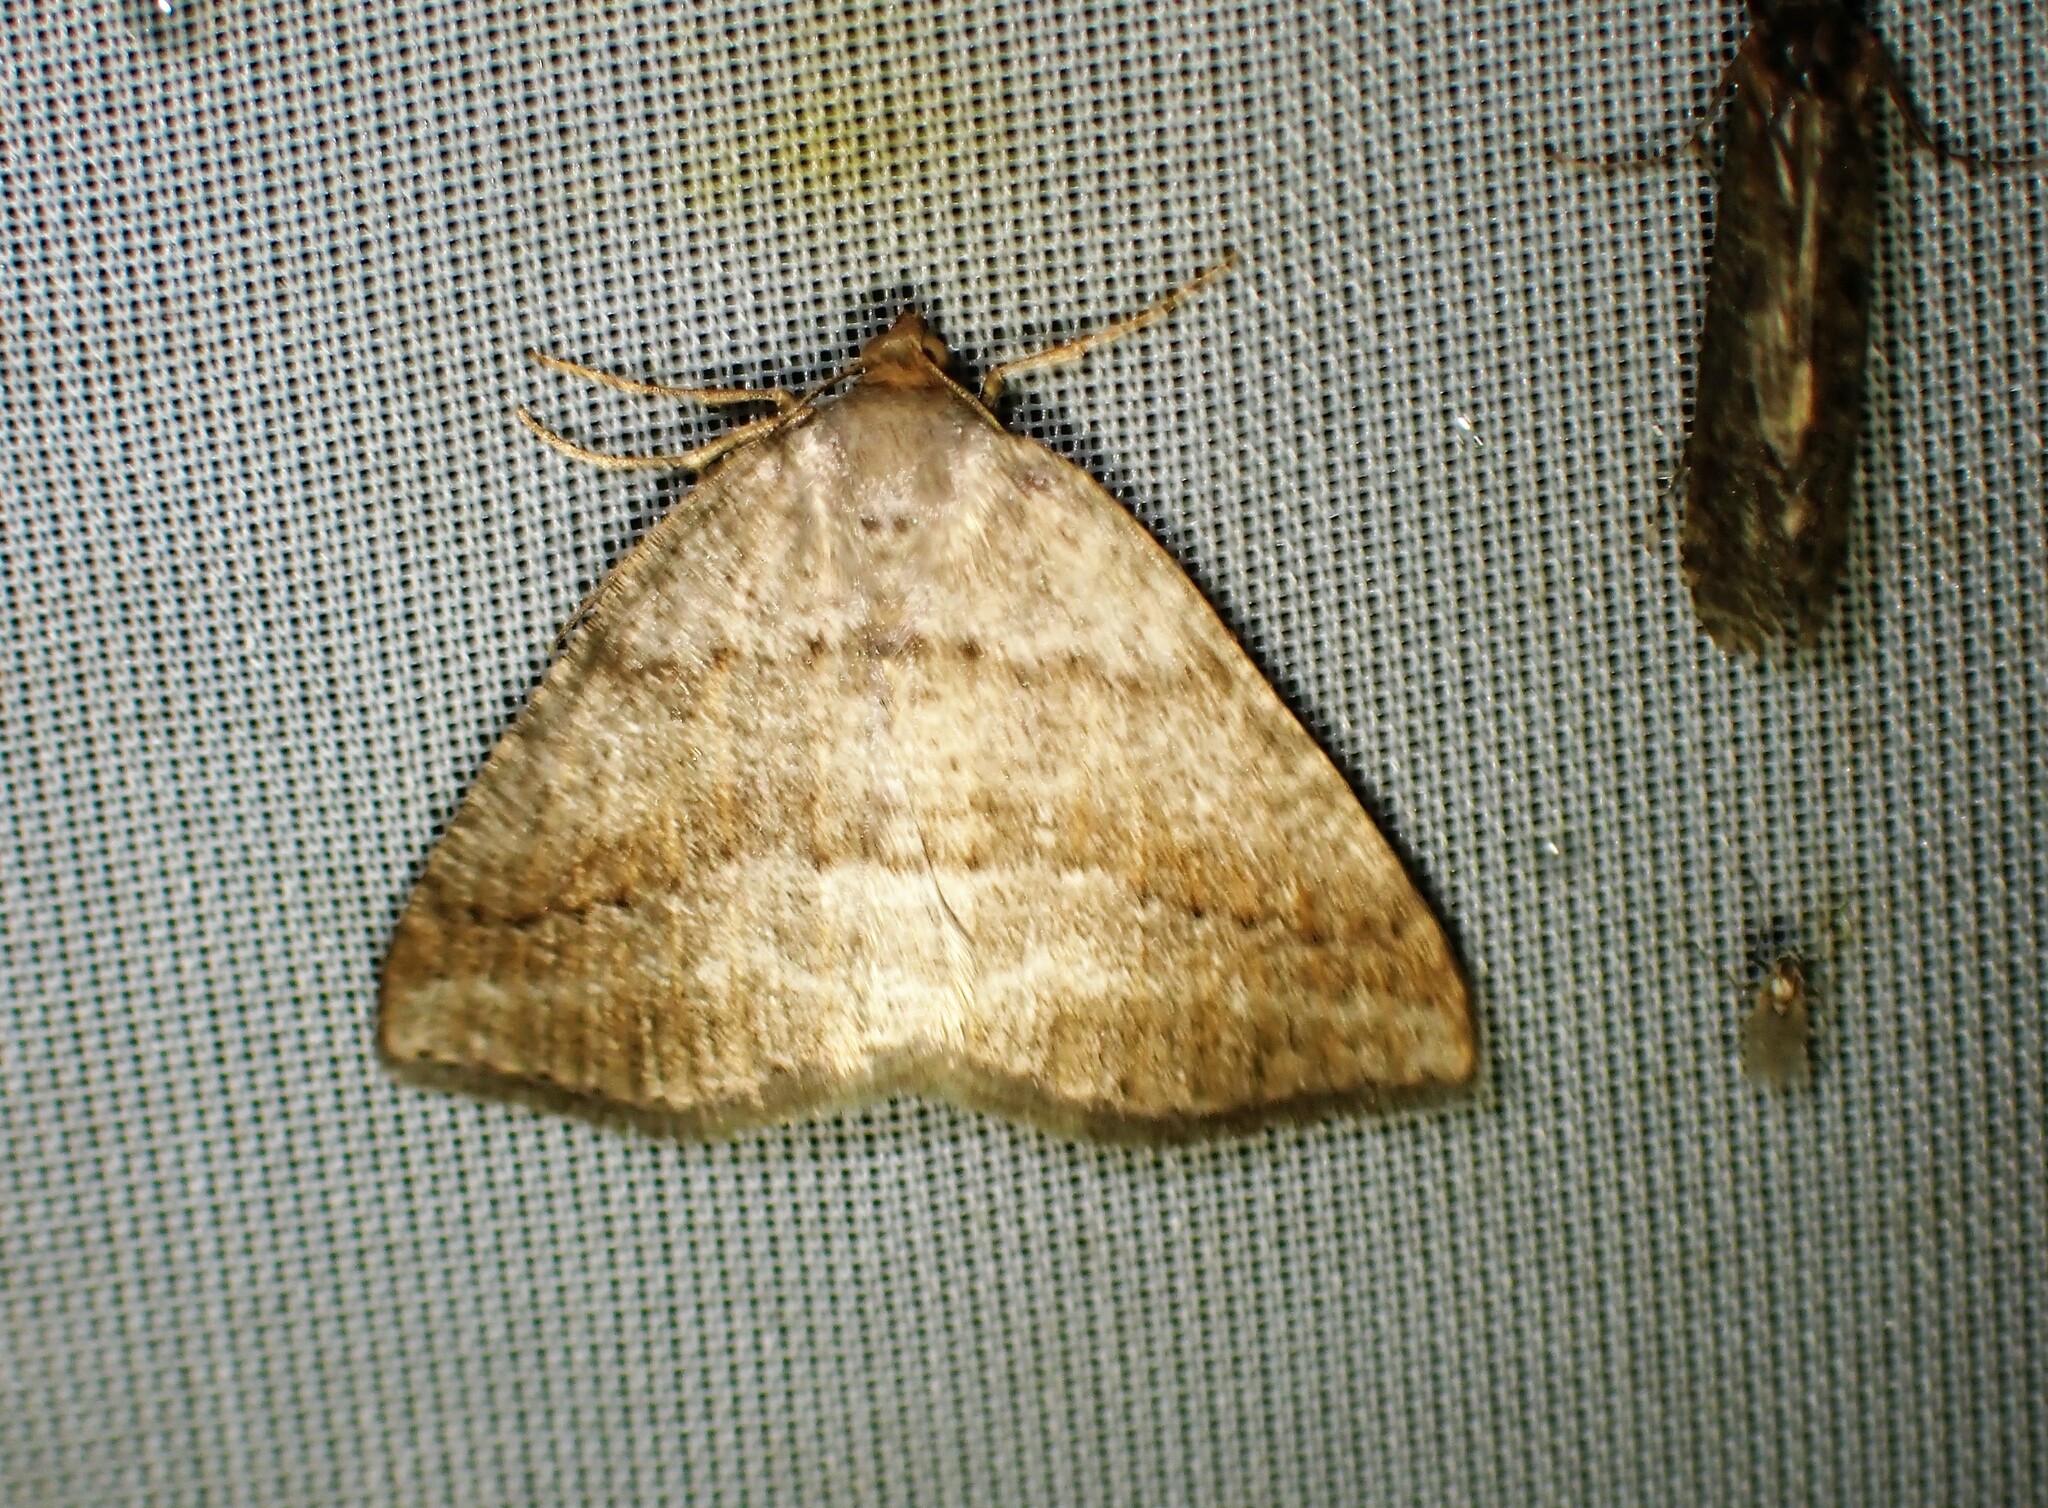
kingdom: Animalia
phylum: Arthropoda
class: Insecta
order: Lepidoptera
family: Geometridae
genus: Tacparia
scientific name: Tacparia detersata
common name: Pale alder moth
